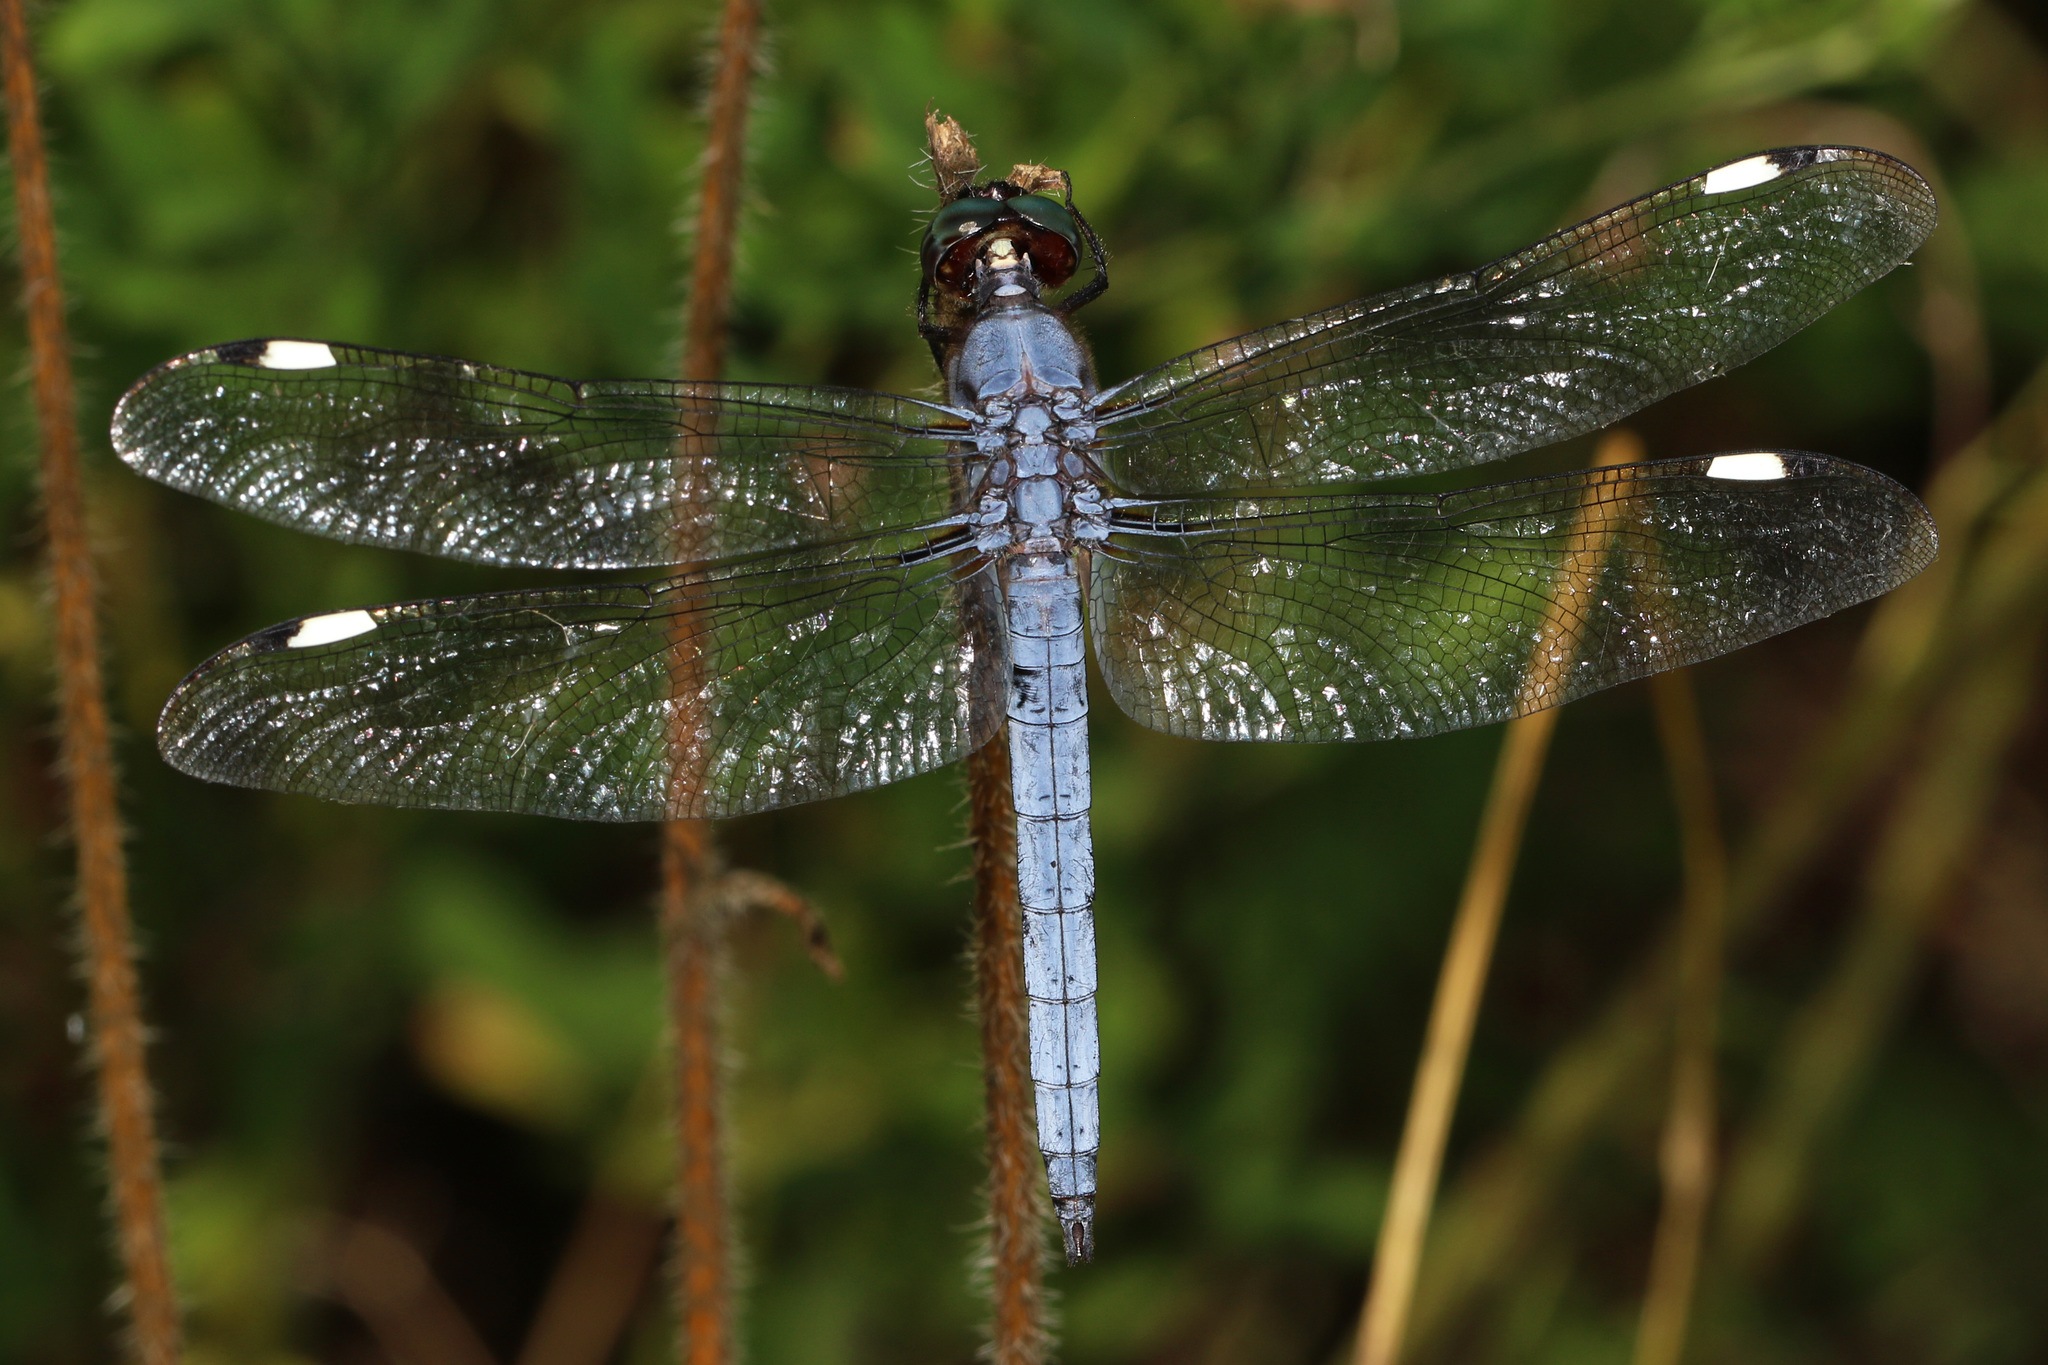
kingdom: Animalia
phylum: Arthropoda
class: Insecta
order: Odonata
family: Libellulidae
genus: Libellula
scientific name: Libellula cyanea
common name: Spangled skimmer
